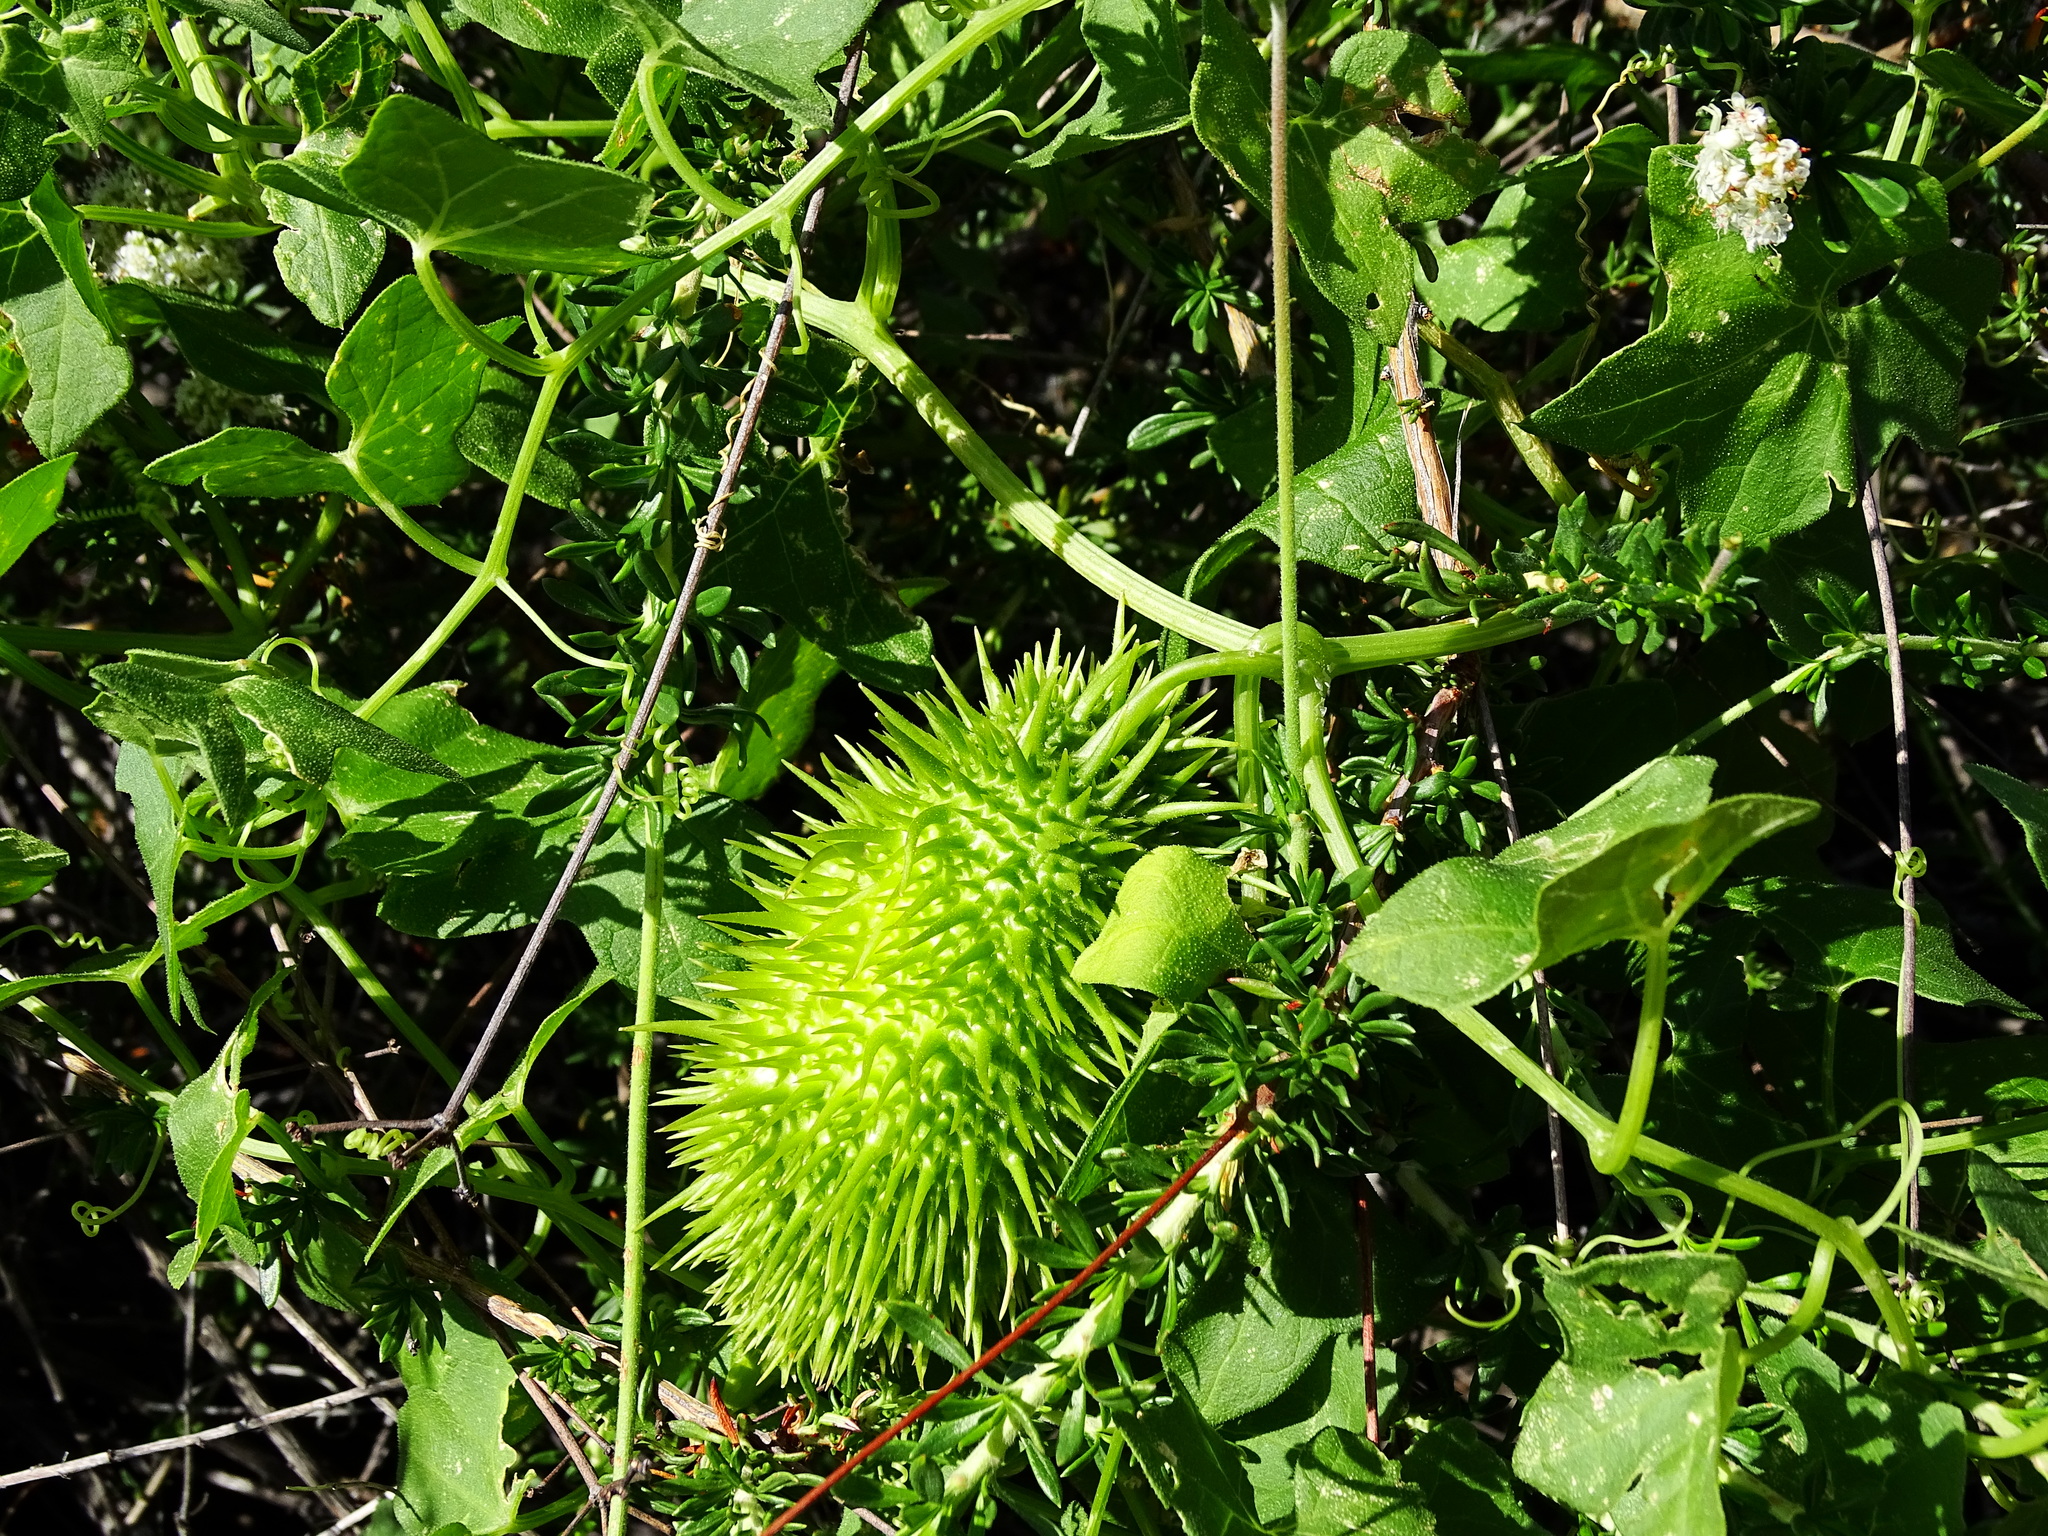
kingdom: Plantae
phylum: Tracheophyta
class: Magnoliopsida
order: Cucurbitales
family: Cucurbitaceae
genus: Marah
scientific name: Marah macrocarpa
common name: Cucamonga manroot
